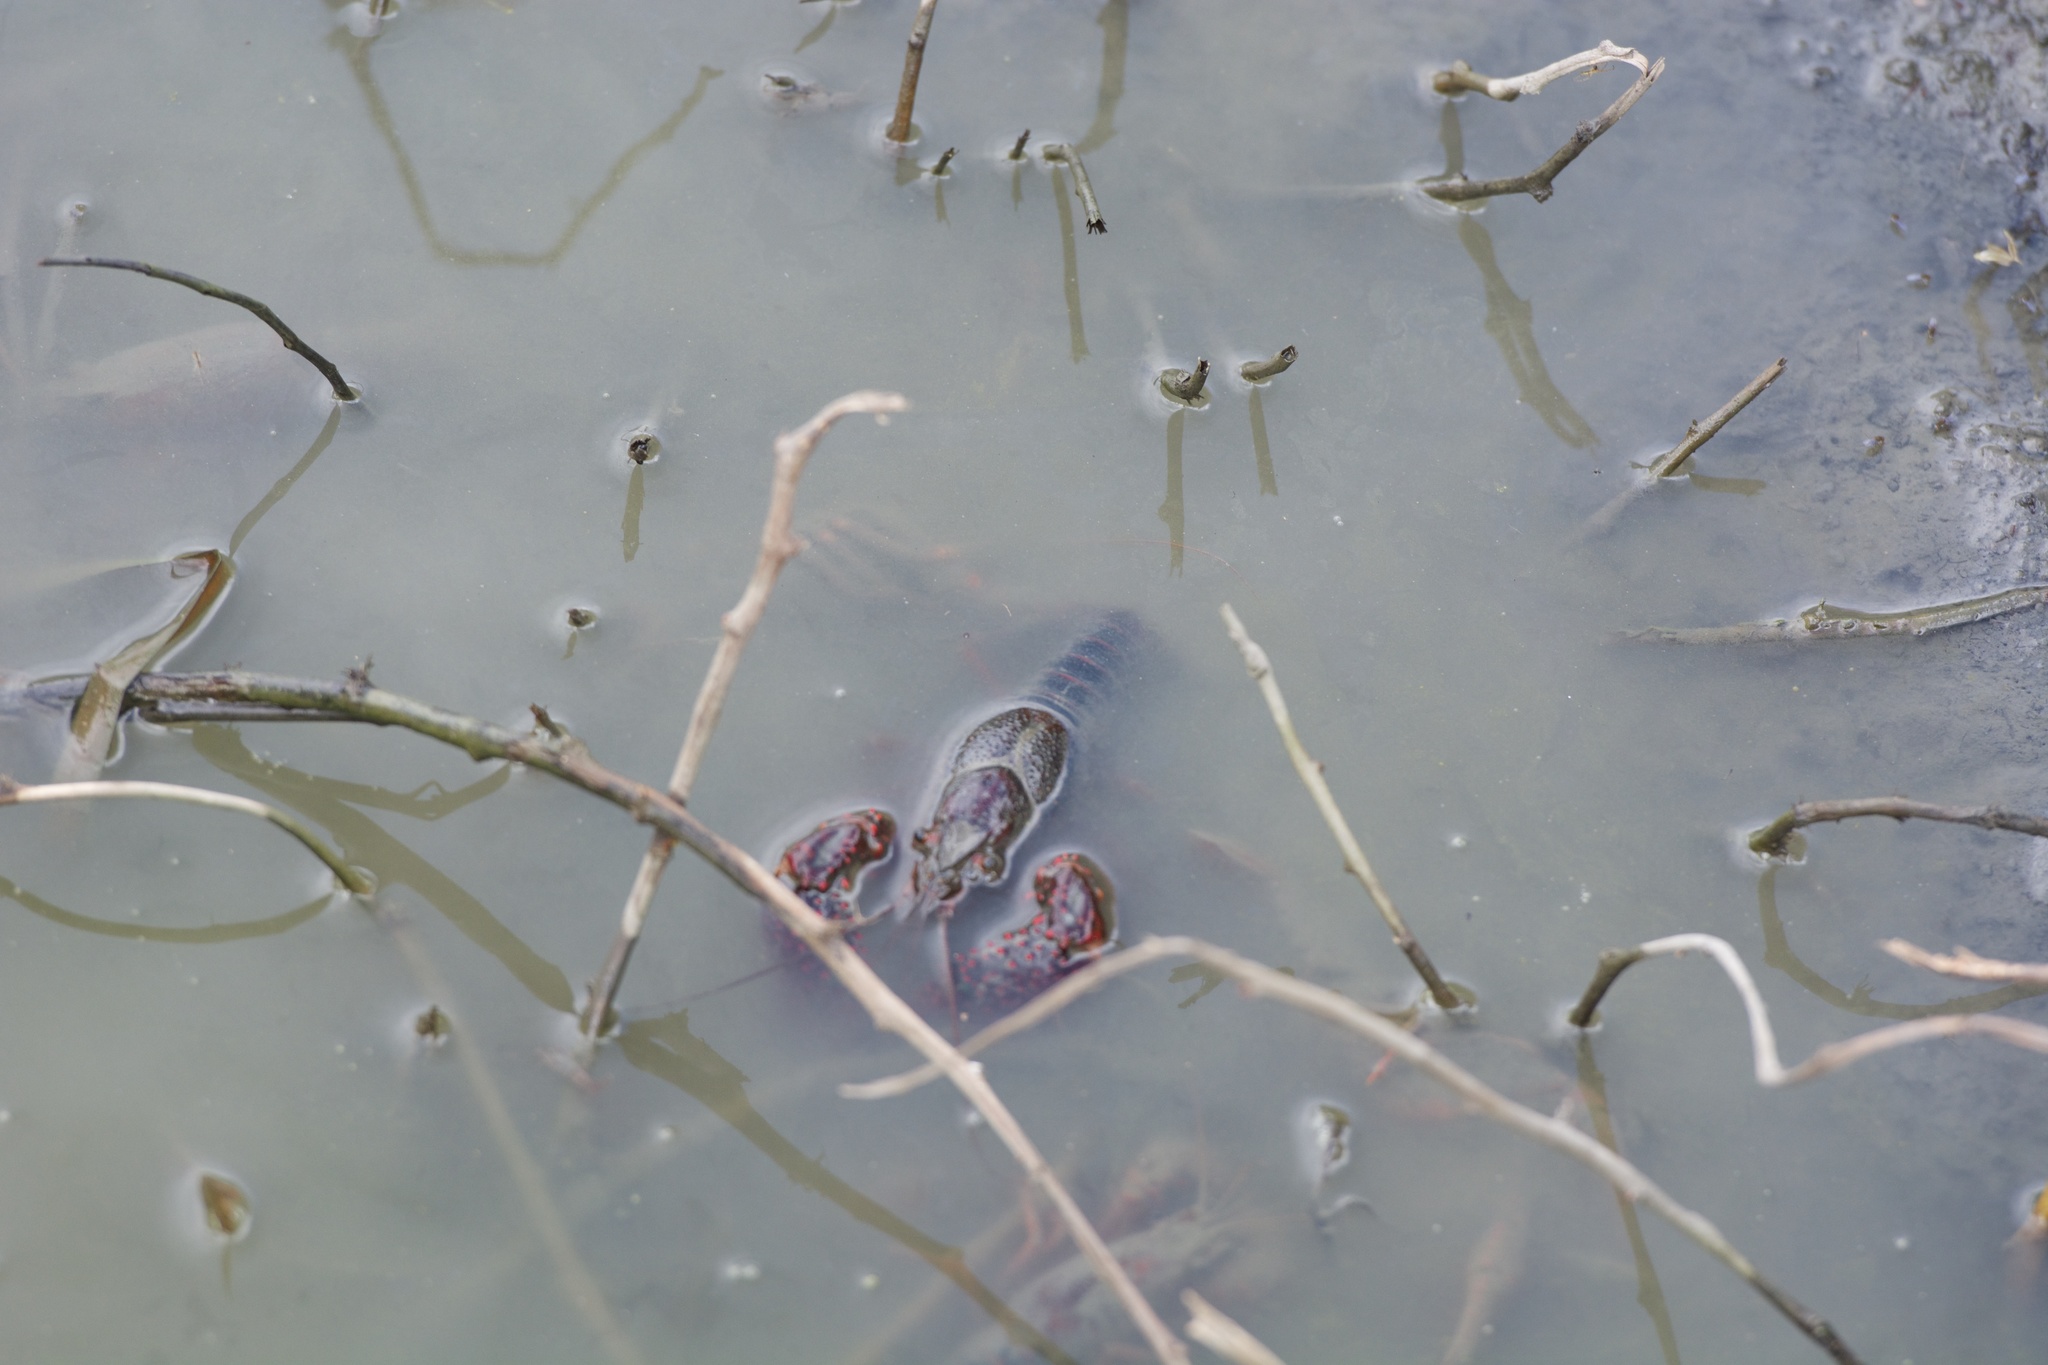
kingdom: Animalia
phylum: Arthropoda
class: Malacostraca
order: Decapoda
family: Cambaridae
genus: Procambarus
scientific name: Procambarus clarkii
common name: Red swamp crayfish
